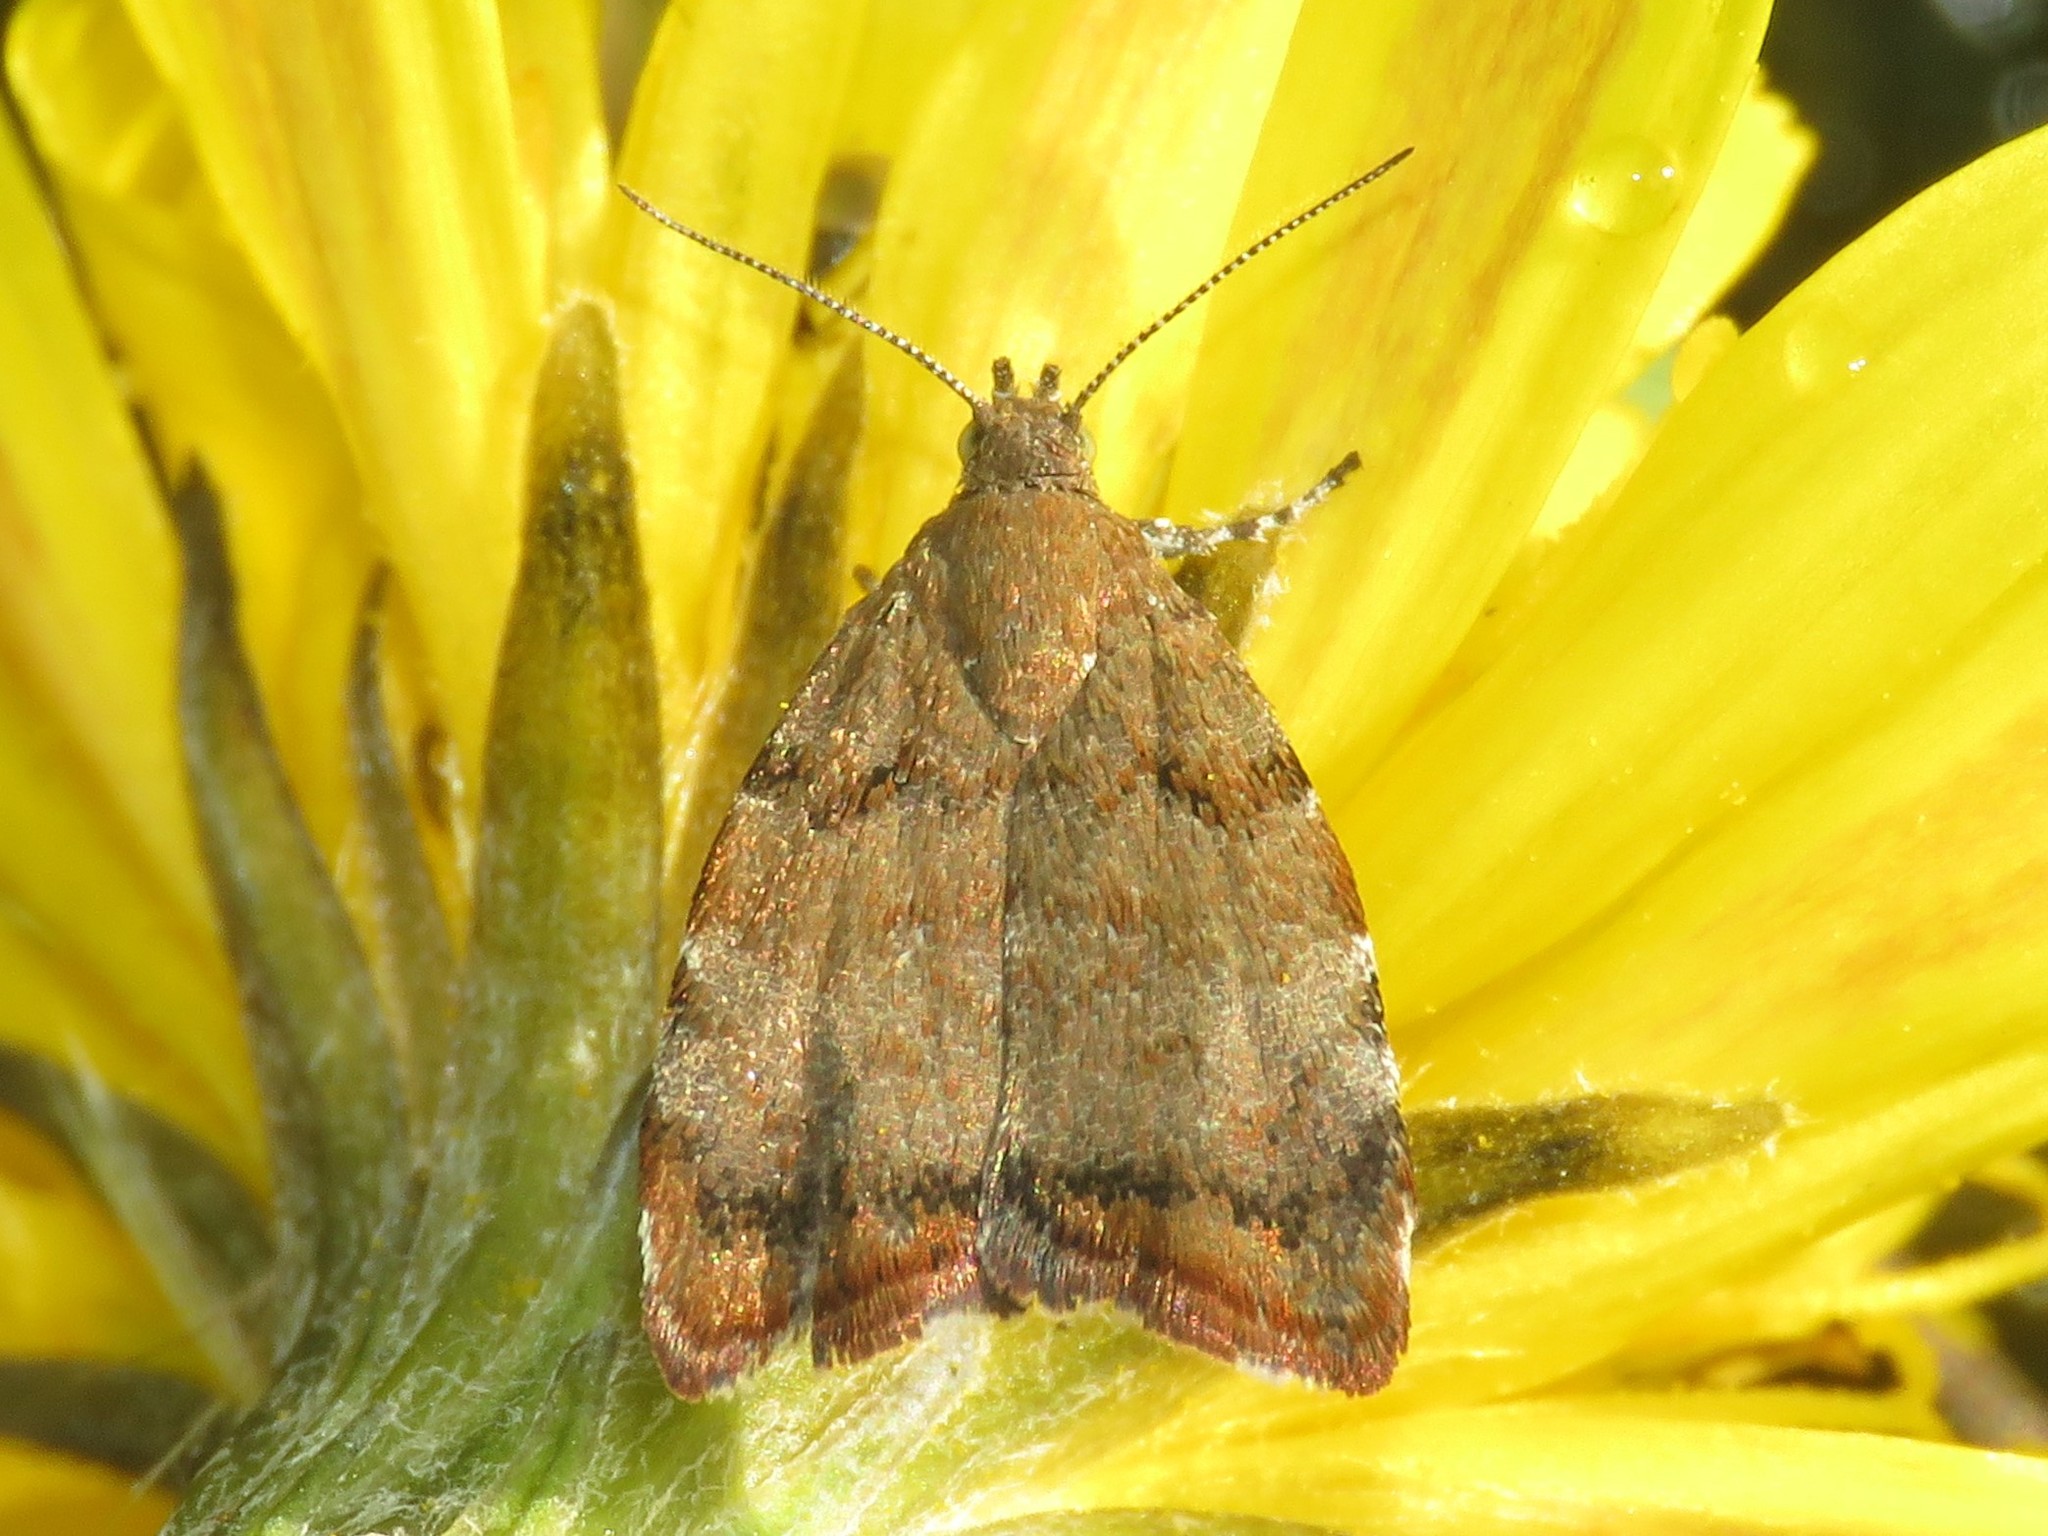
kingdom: Animalia
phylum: Arthropoda
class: Insecta
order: Lepidoptera
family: Choreutidae
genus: Choreutis
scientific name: Choreutis pariana
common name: Apple leaf skeletoniser
